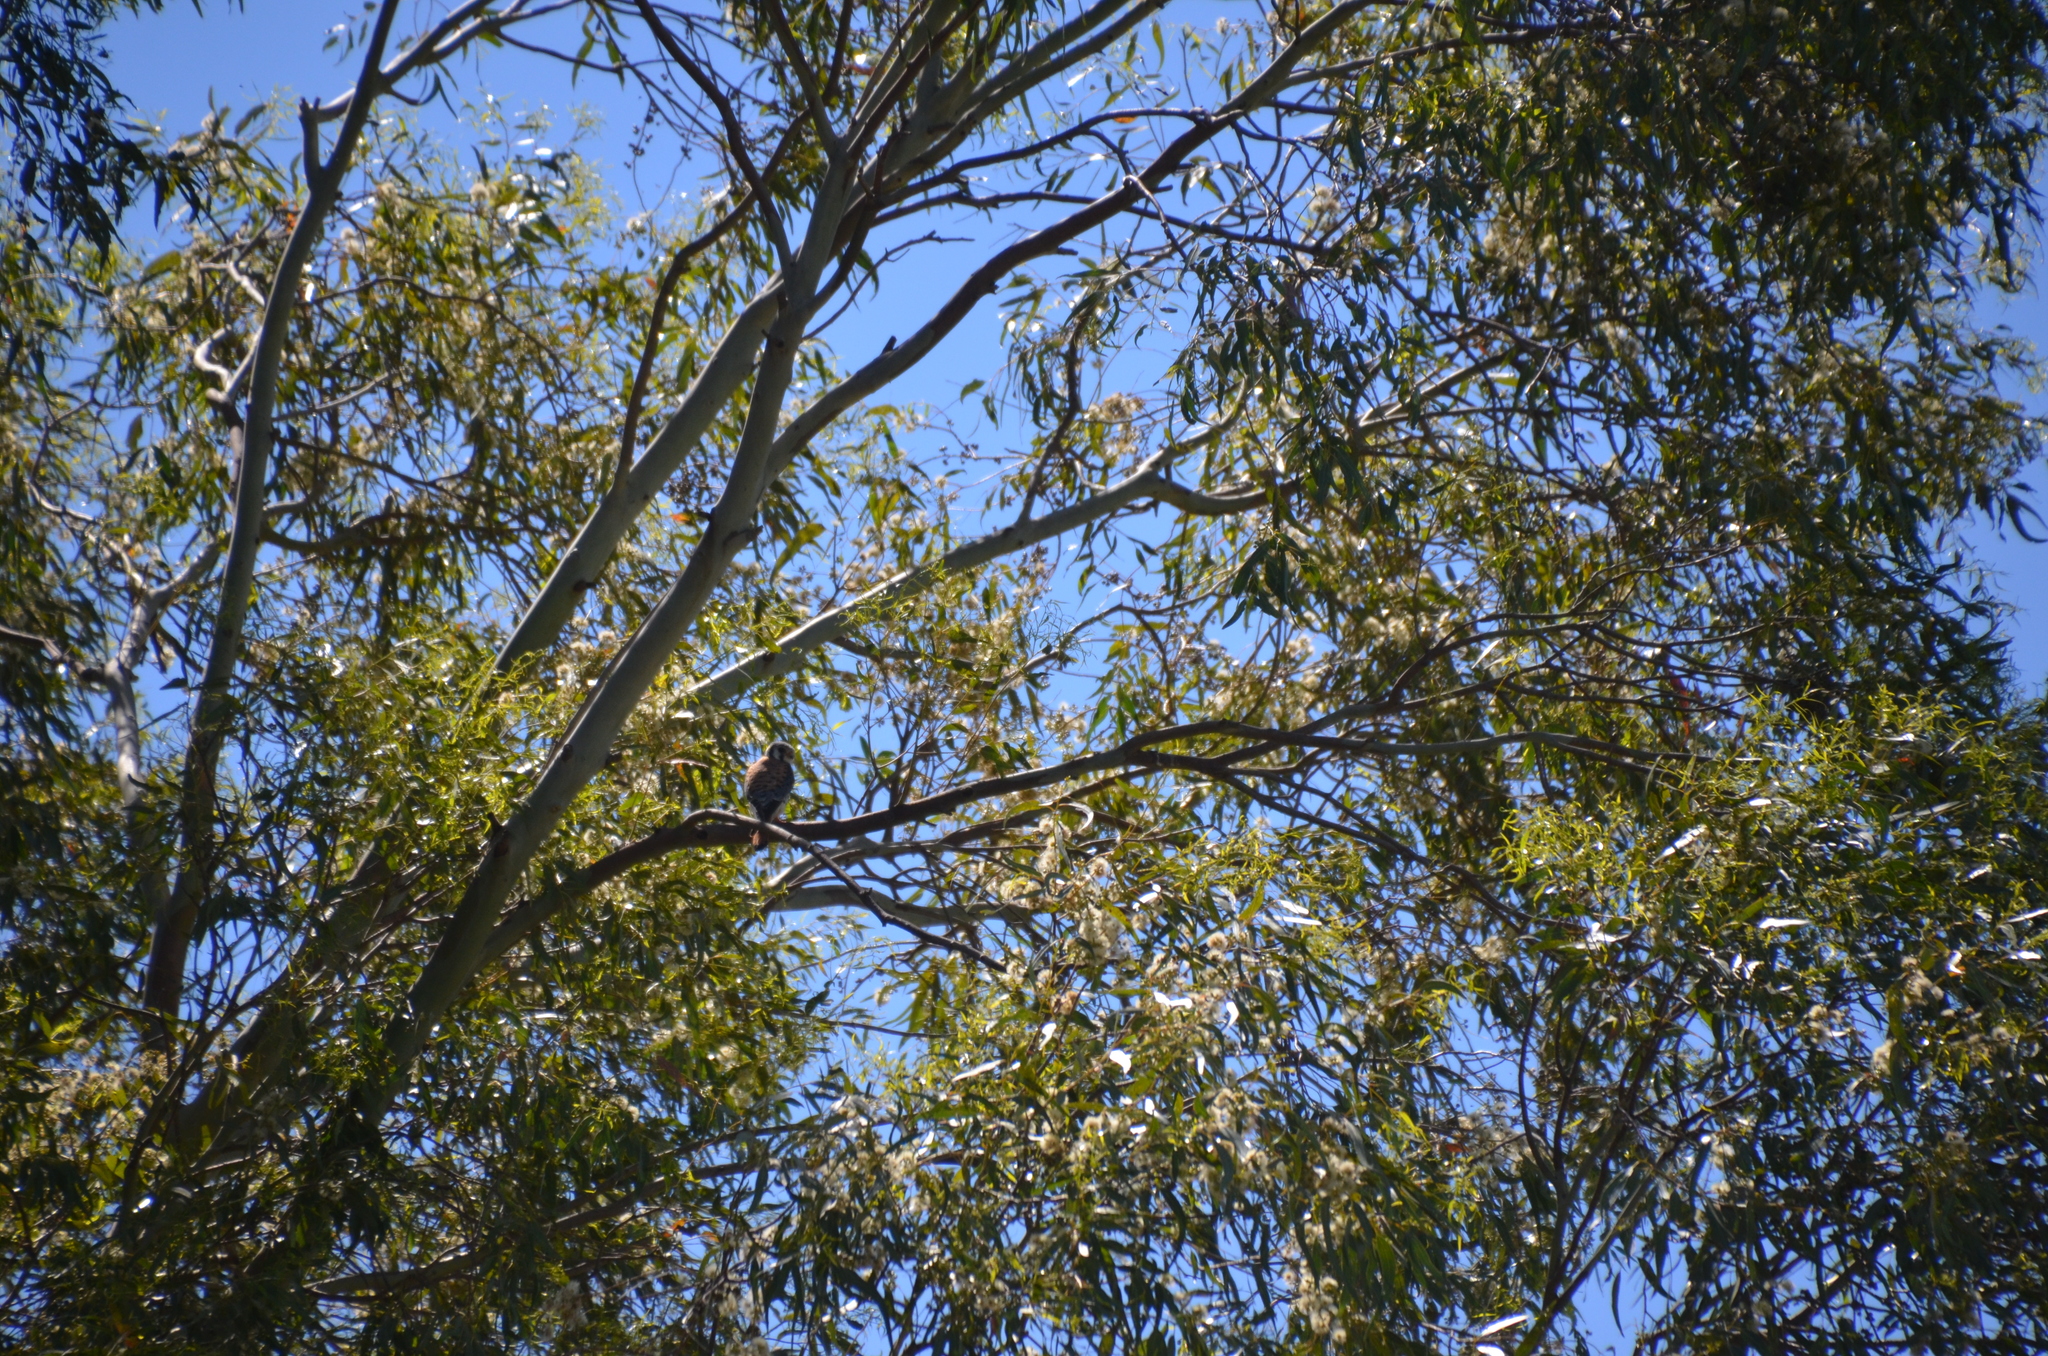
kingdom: Animalia
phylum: Chordata
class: Aves
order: Falconiformes
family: Falconidae
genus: Falco
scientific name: Falco sparverius
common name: American kestrel
